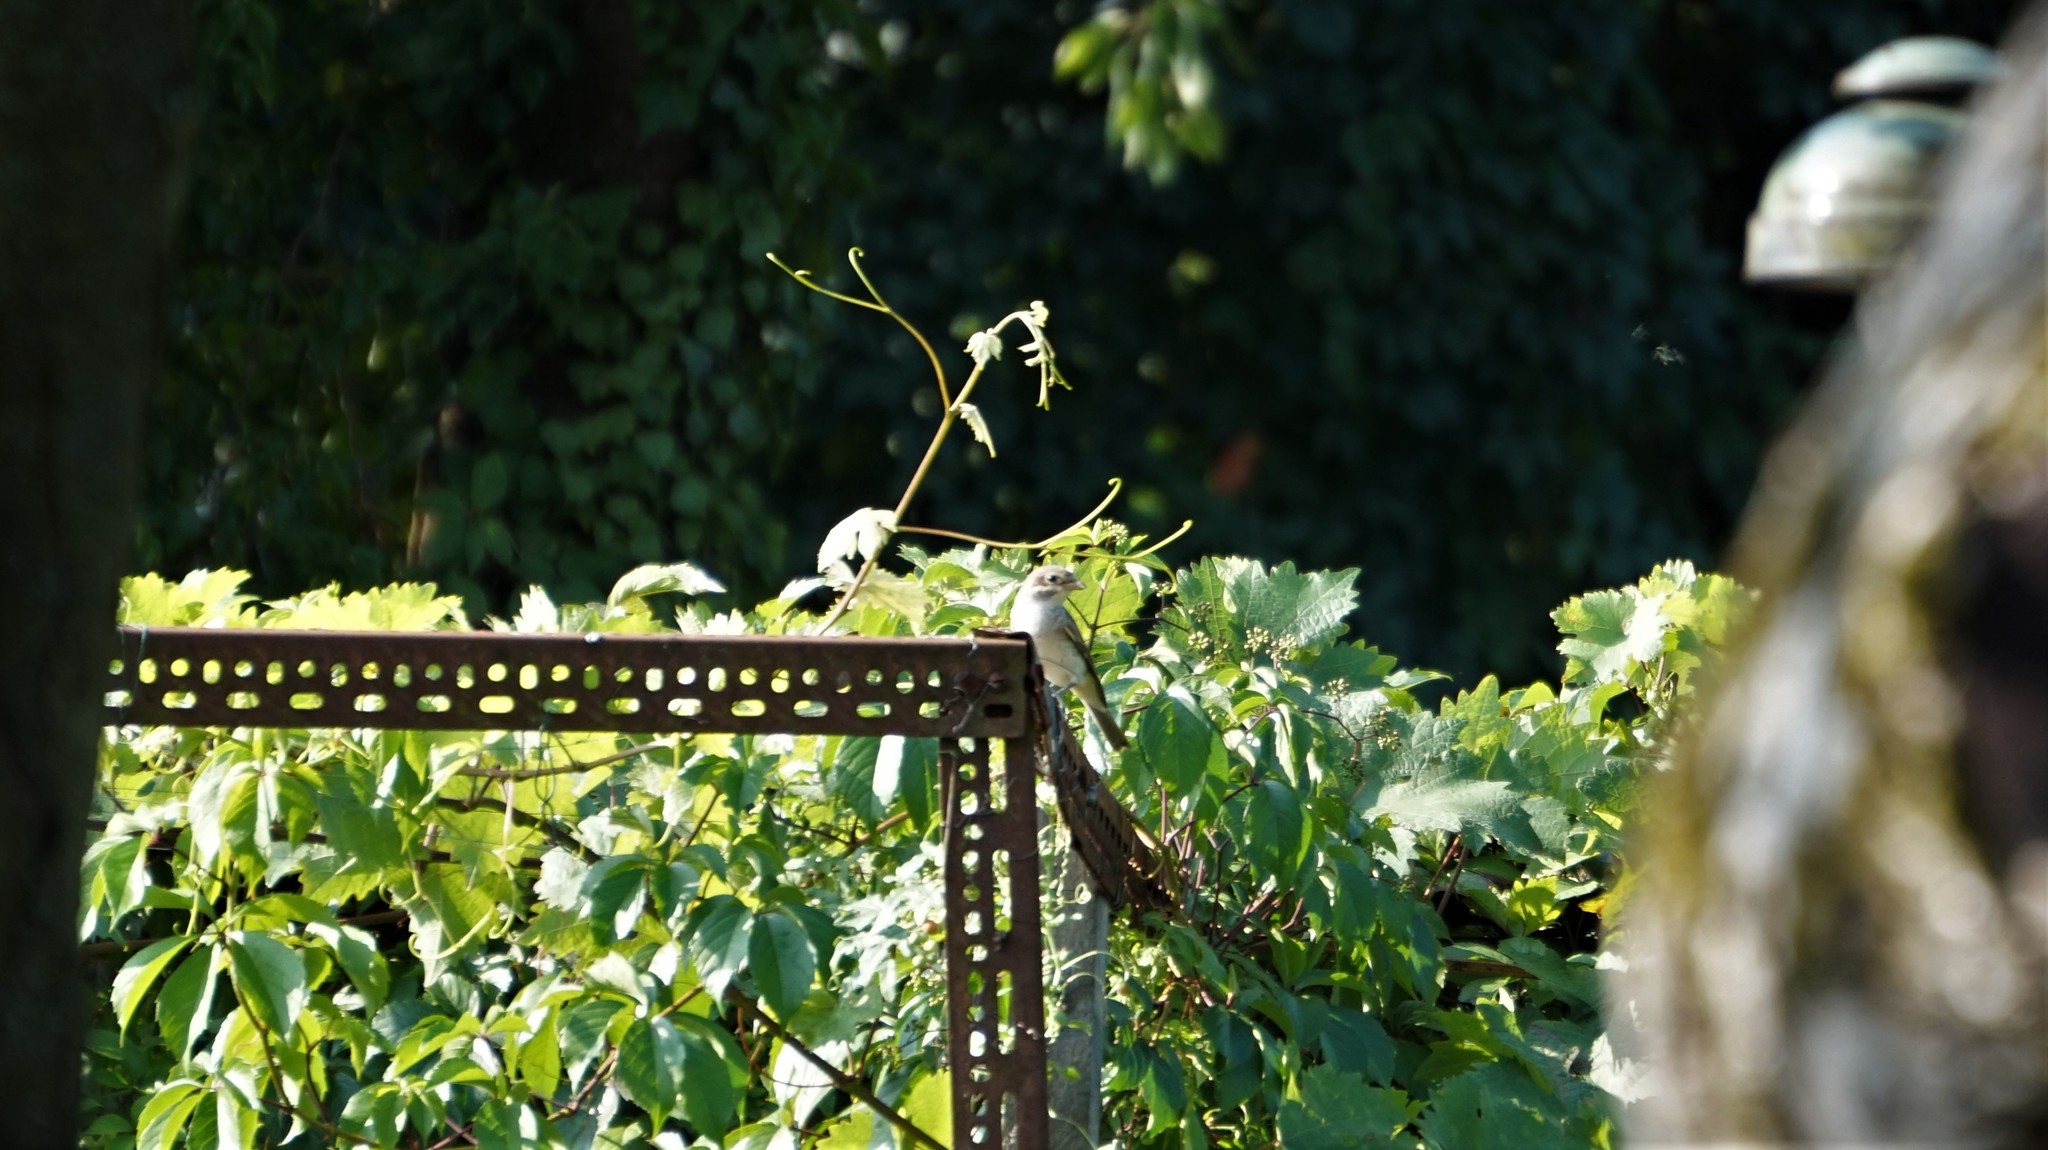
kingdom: Animalia
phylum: Chordata
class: Aves
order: Passeriformes
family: Laniidae
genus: Lanius
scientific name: Lanius collurio
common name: Red-backed shrike
